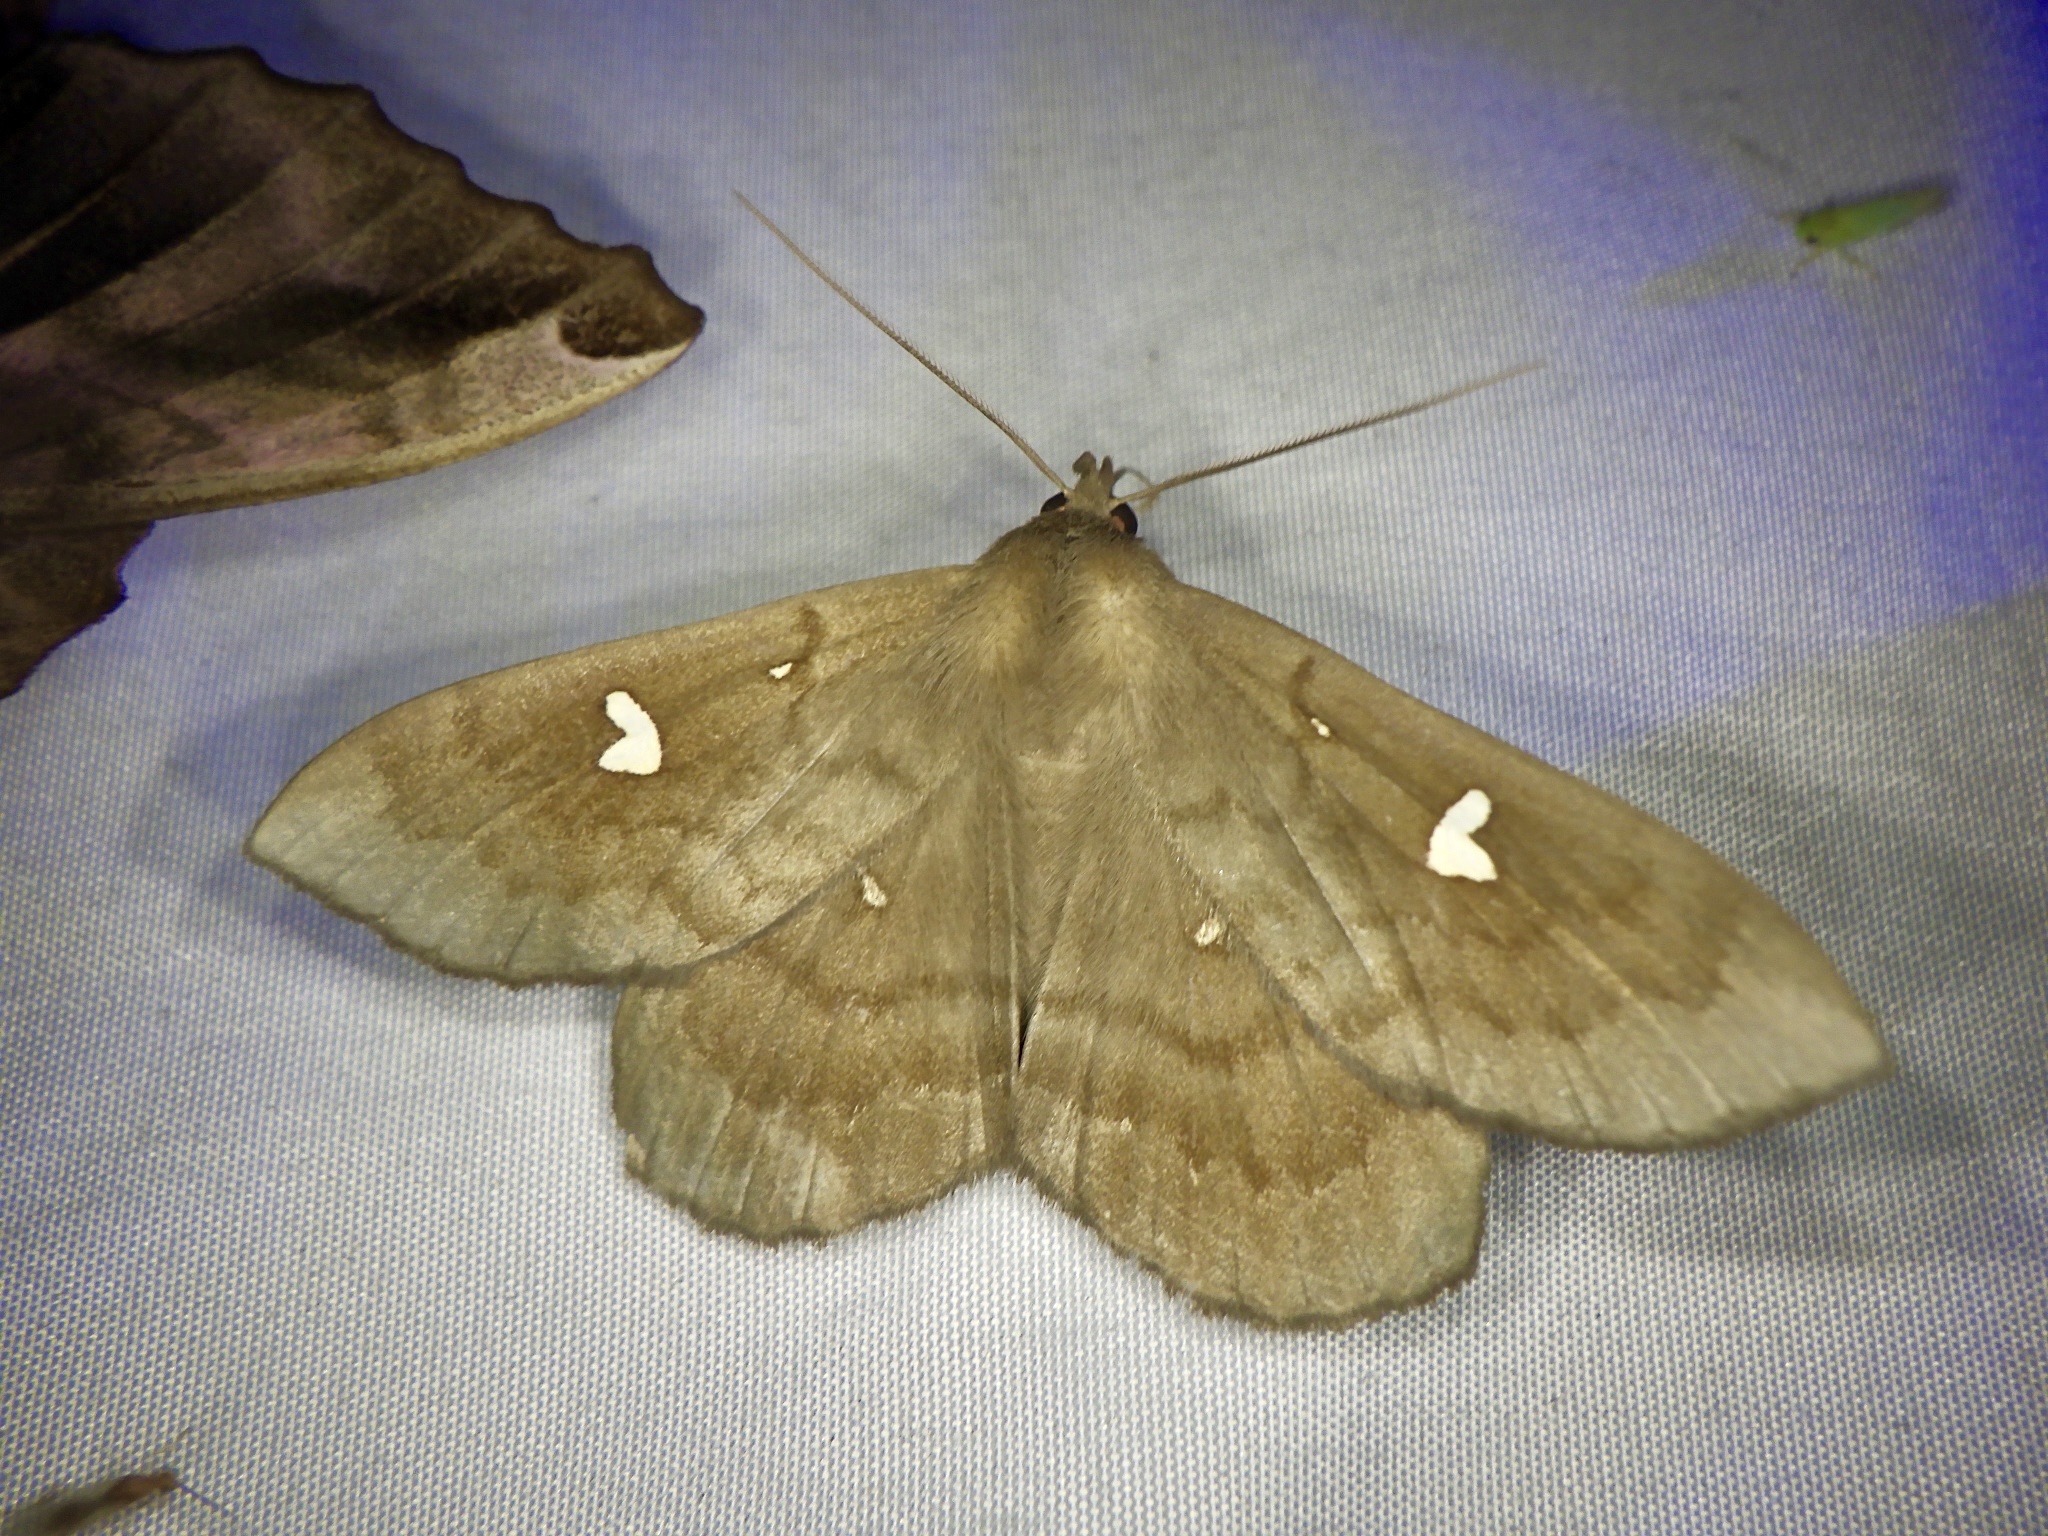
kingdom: Animalia
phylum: Arthropoda
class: Insecta
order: Lepidoptera
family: Erebidae
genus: Edessena
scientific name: Edessena hamada
